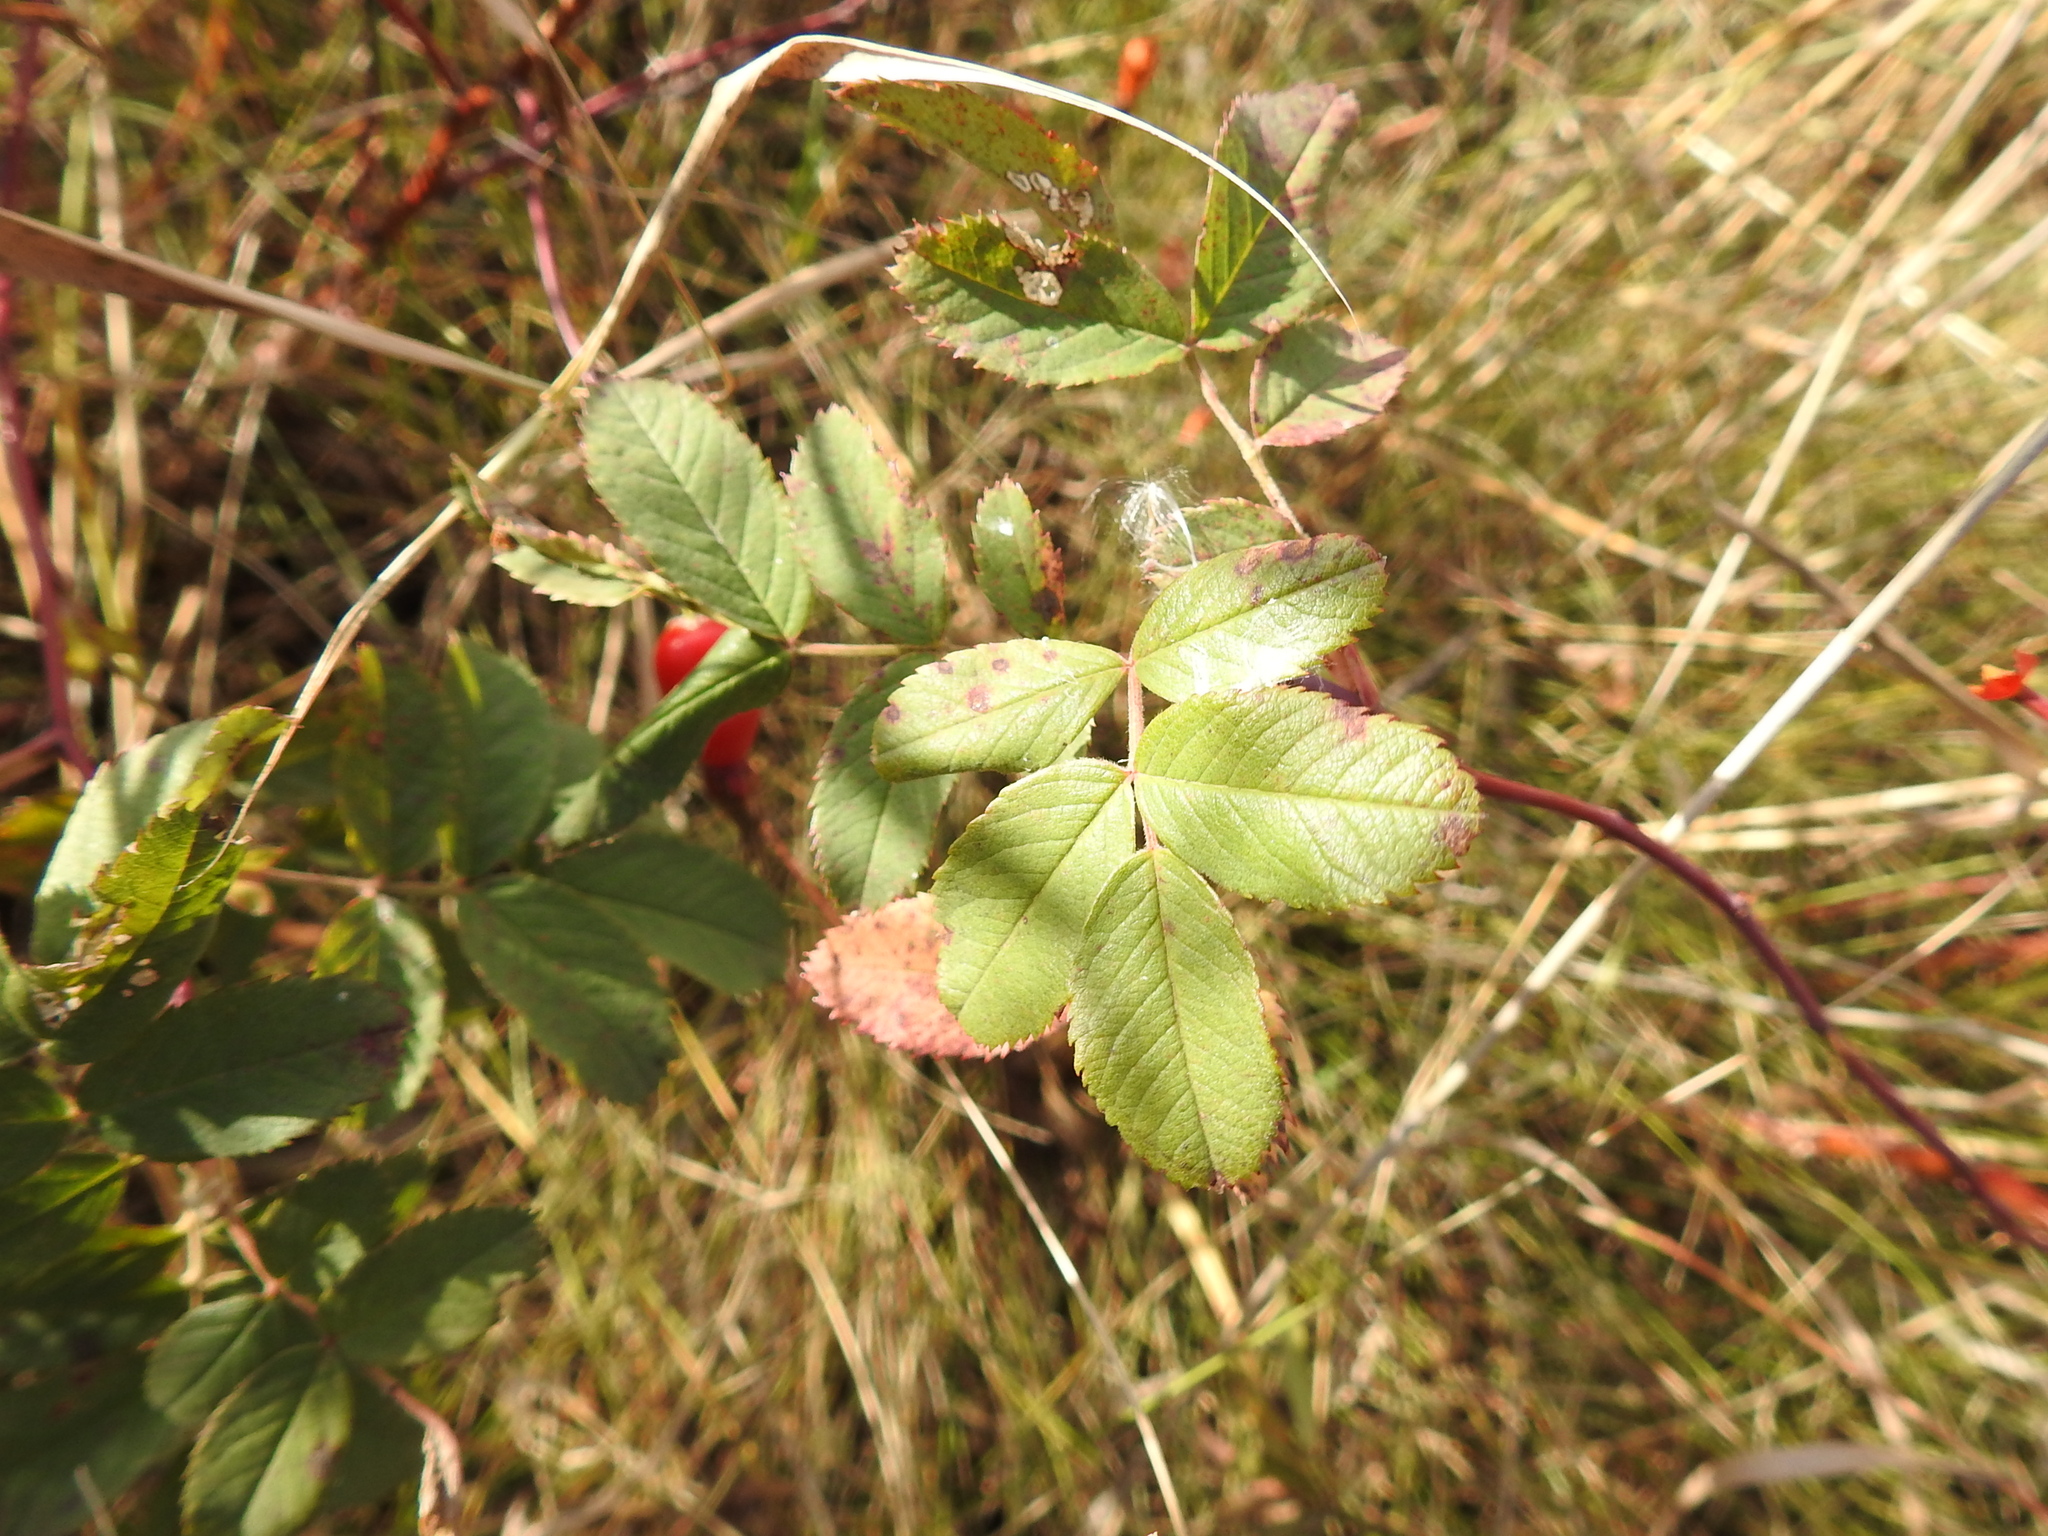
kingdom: Plantae
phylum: Tracheophyta
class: Magnoliopsida
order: Rosales
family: Rosaceae
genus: Rosa
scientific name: Rosa majalis
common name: Cinnamon rose
